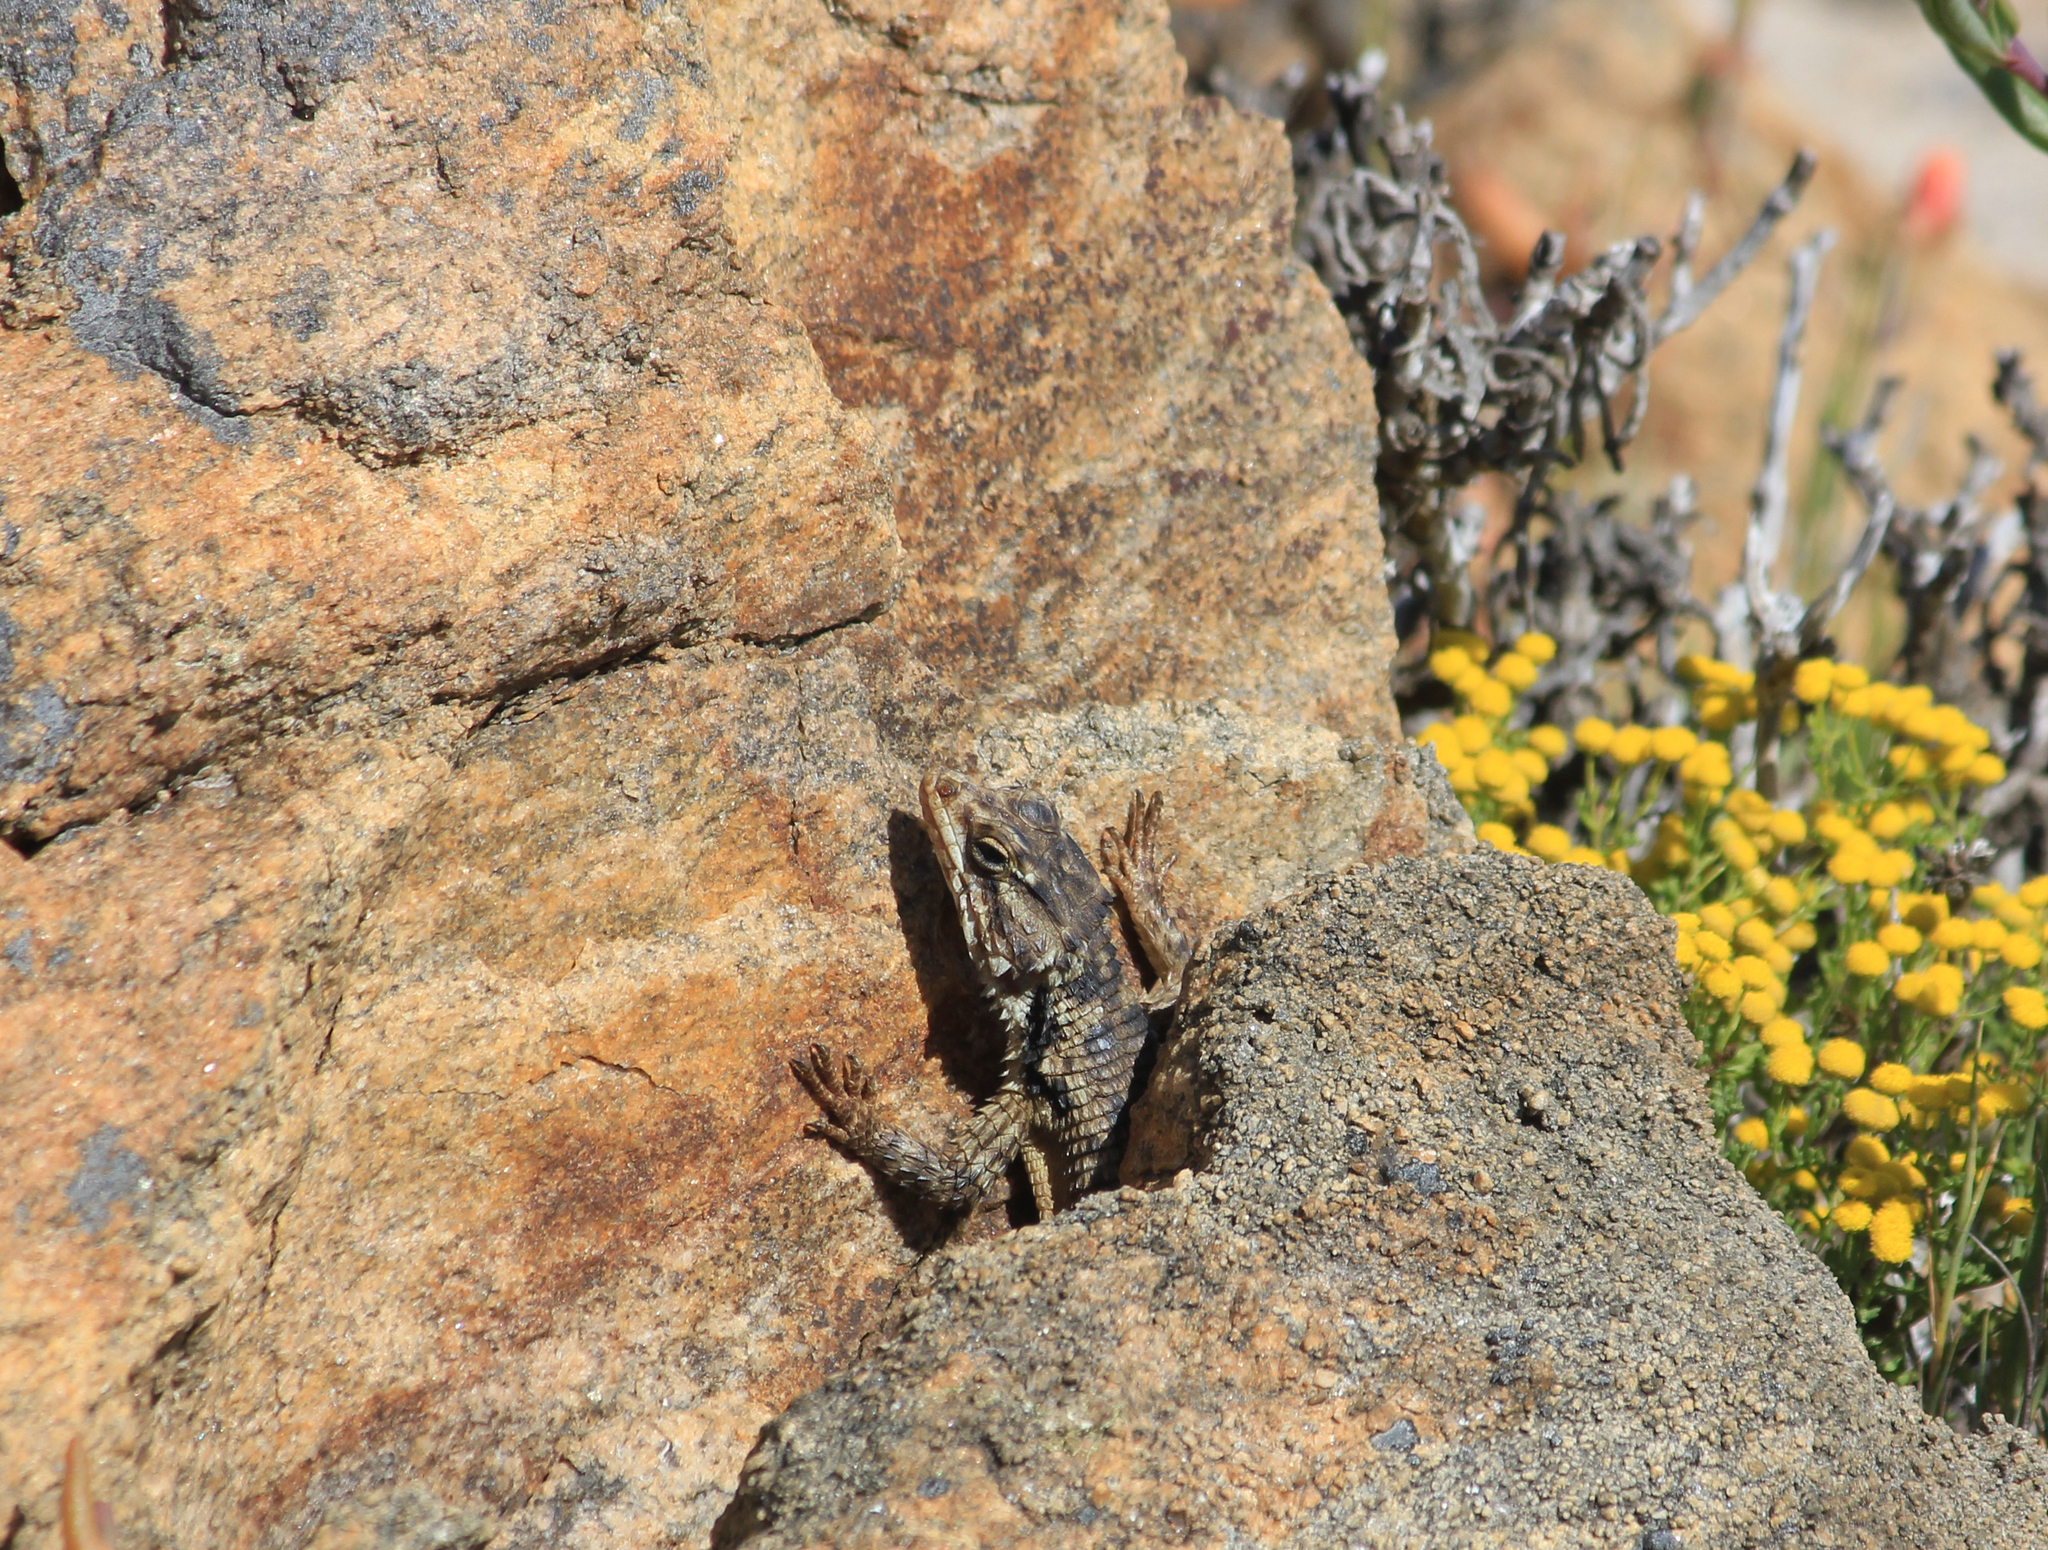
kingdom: Animalia
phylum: Chordata
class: Squamata
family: Cordylidae
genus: Karusasaurus
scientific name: Karusasaurus polyzonus
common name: Karoo girdled lizard
